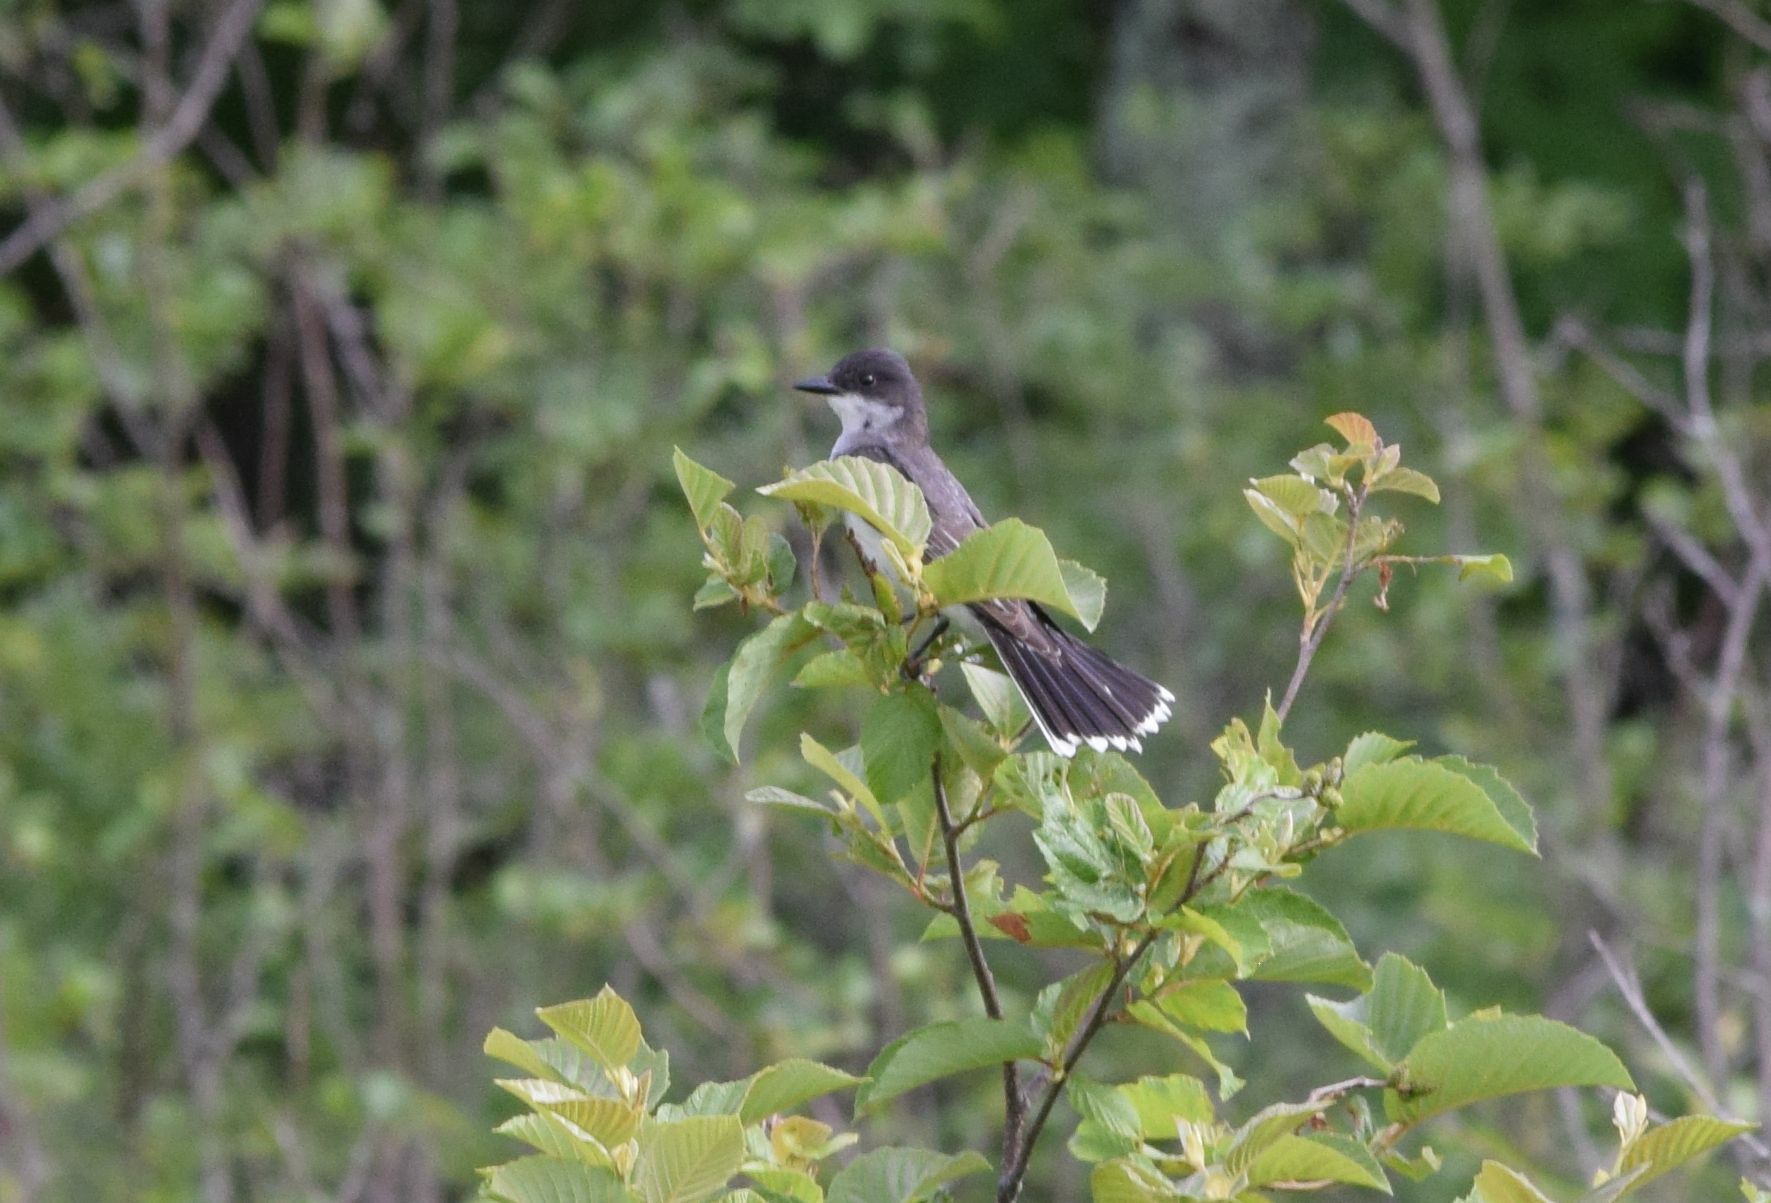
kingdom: Animalia
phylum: Chordata
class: Aves
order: Passeriformes
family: Tyrannidae
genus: Tyrannus
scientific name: Tyrannus tyrannus
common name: Eastern kingbird
